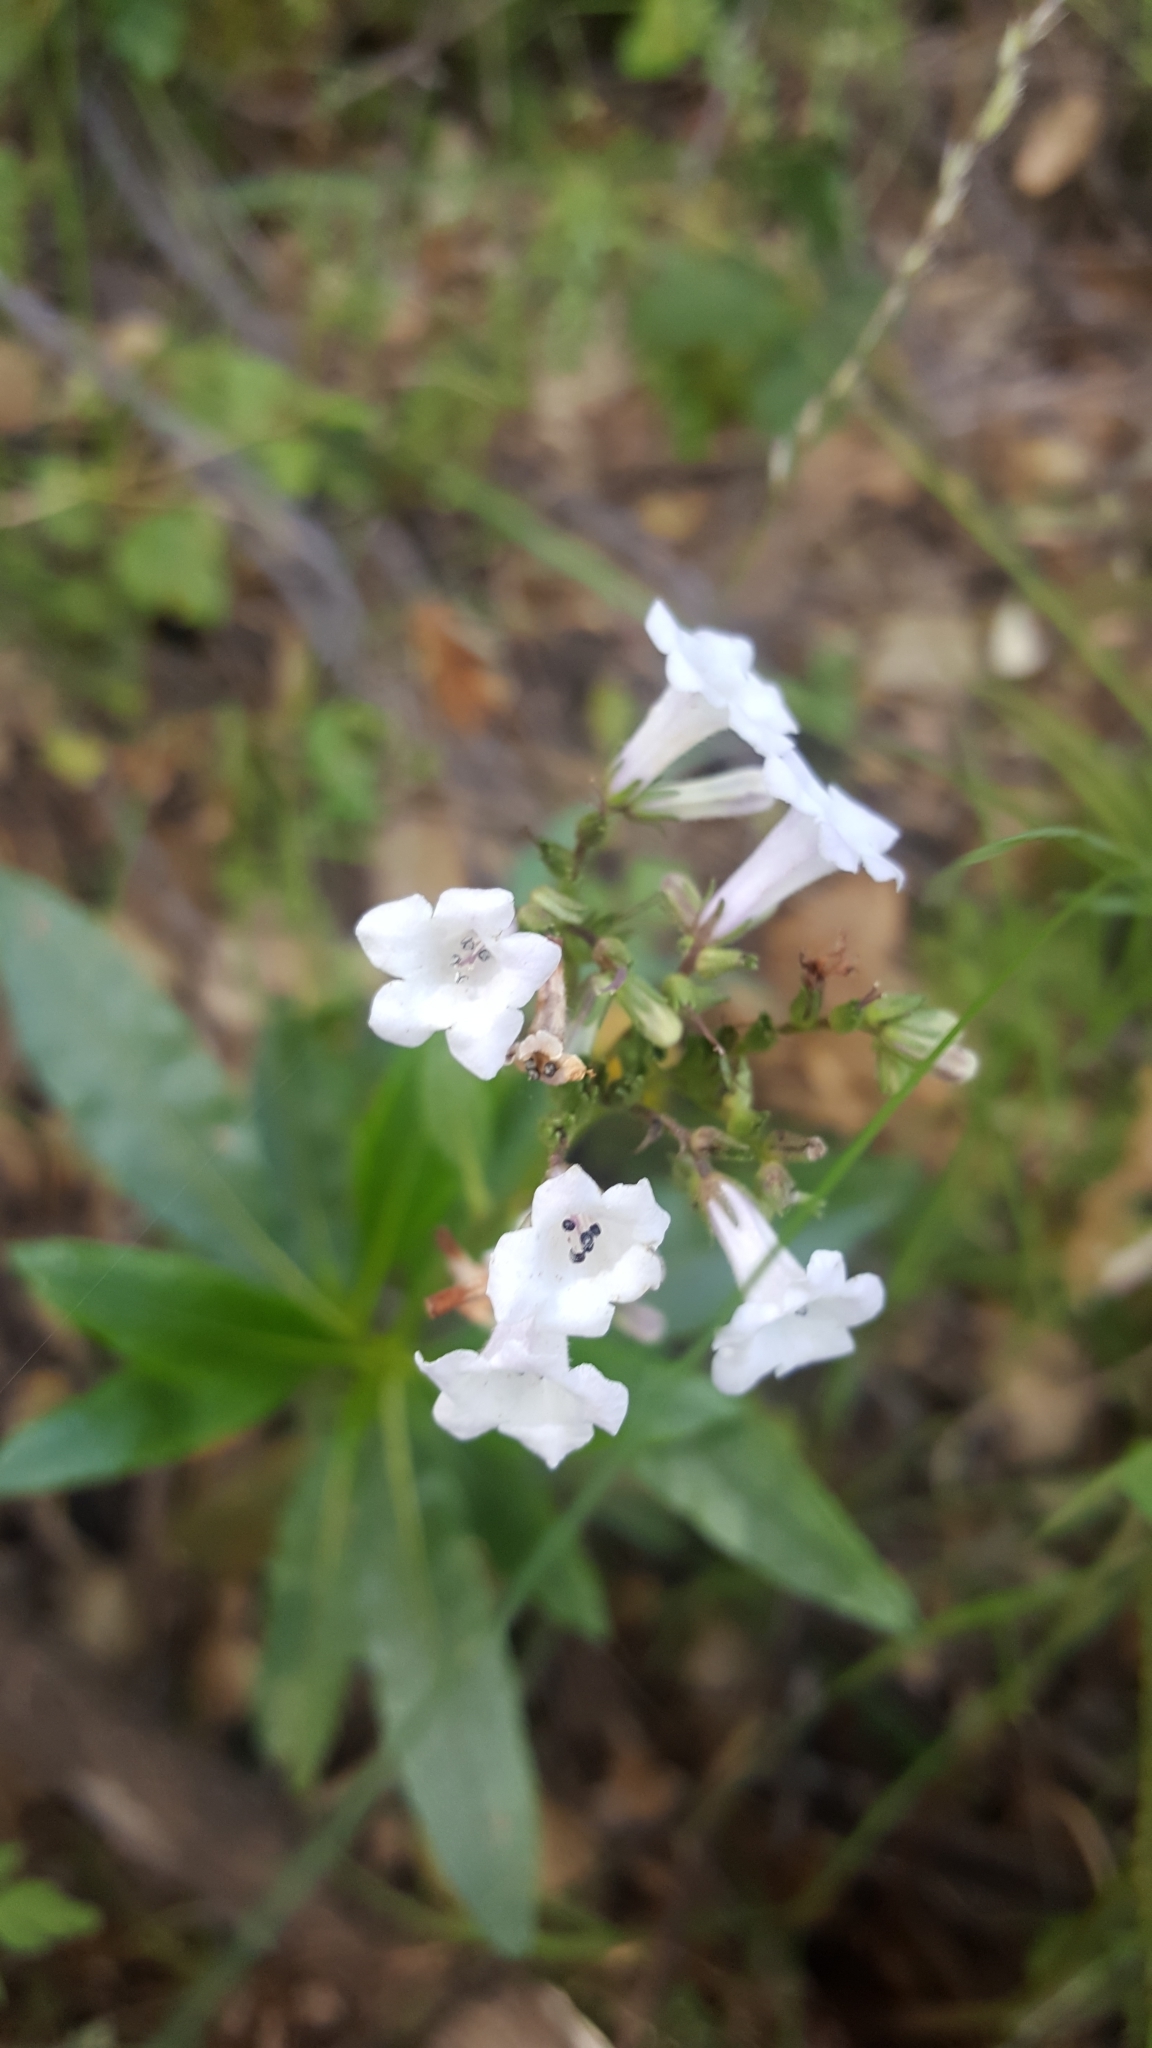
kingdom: Plantae
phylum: Tracheophyta
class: Magnoliopsida
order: Boraginales
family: Namaceae
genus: Eriodictyon
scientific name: Eriodictyon californicum
